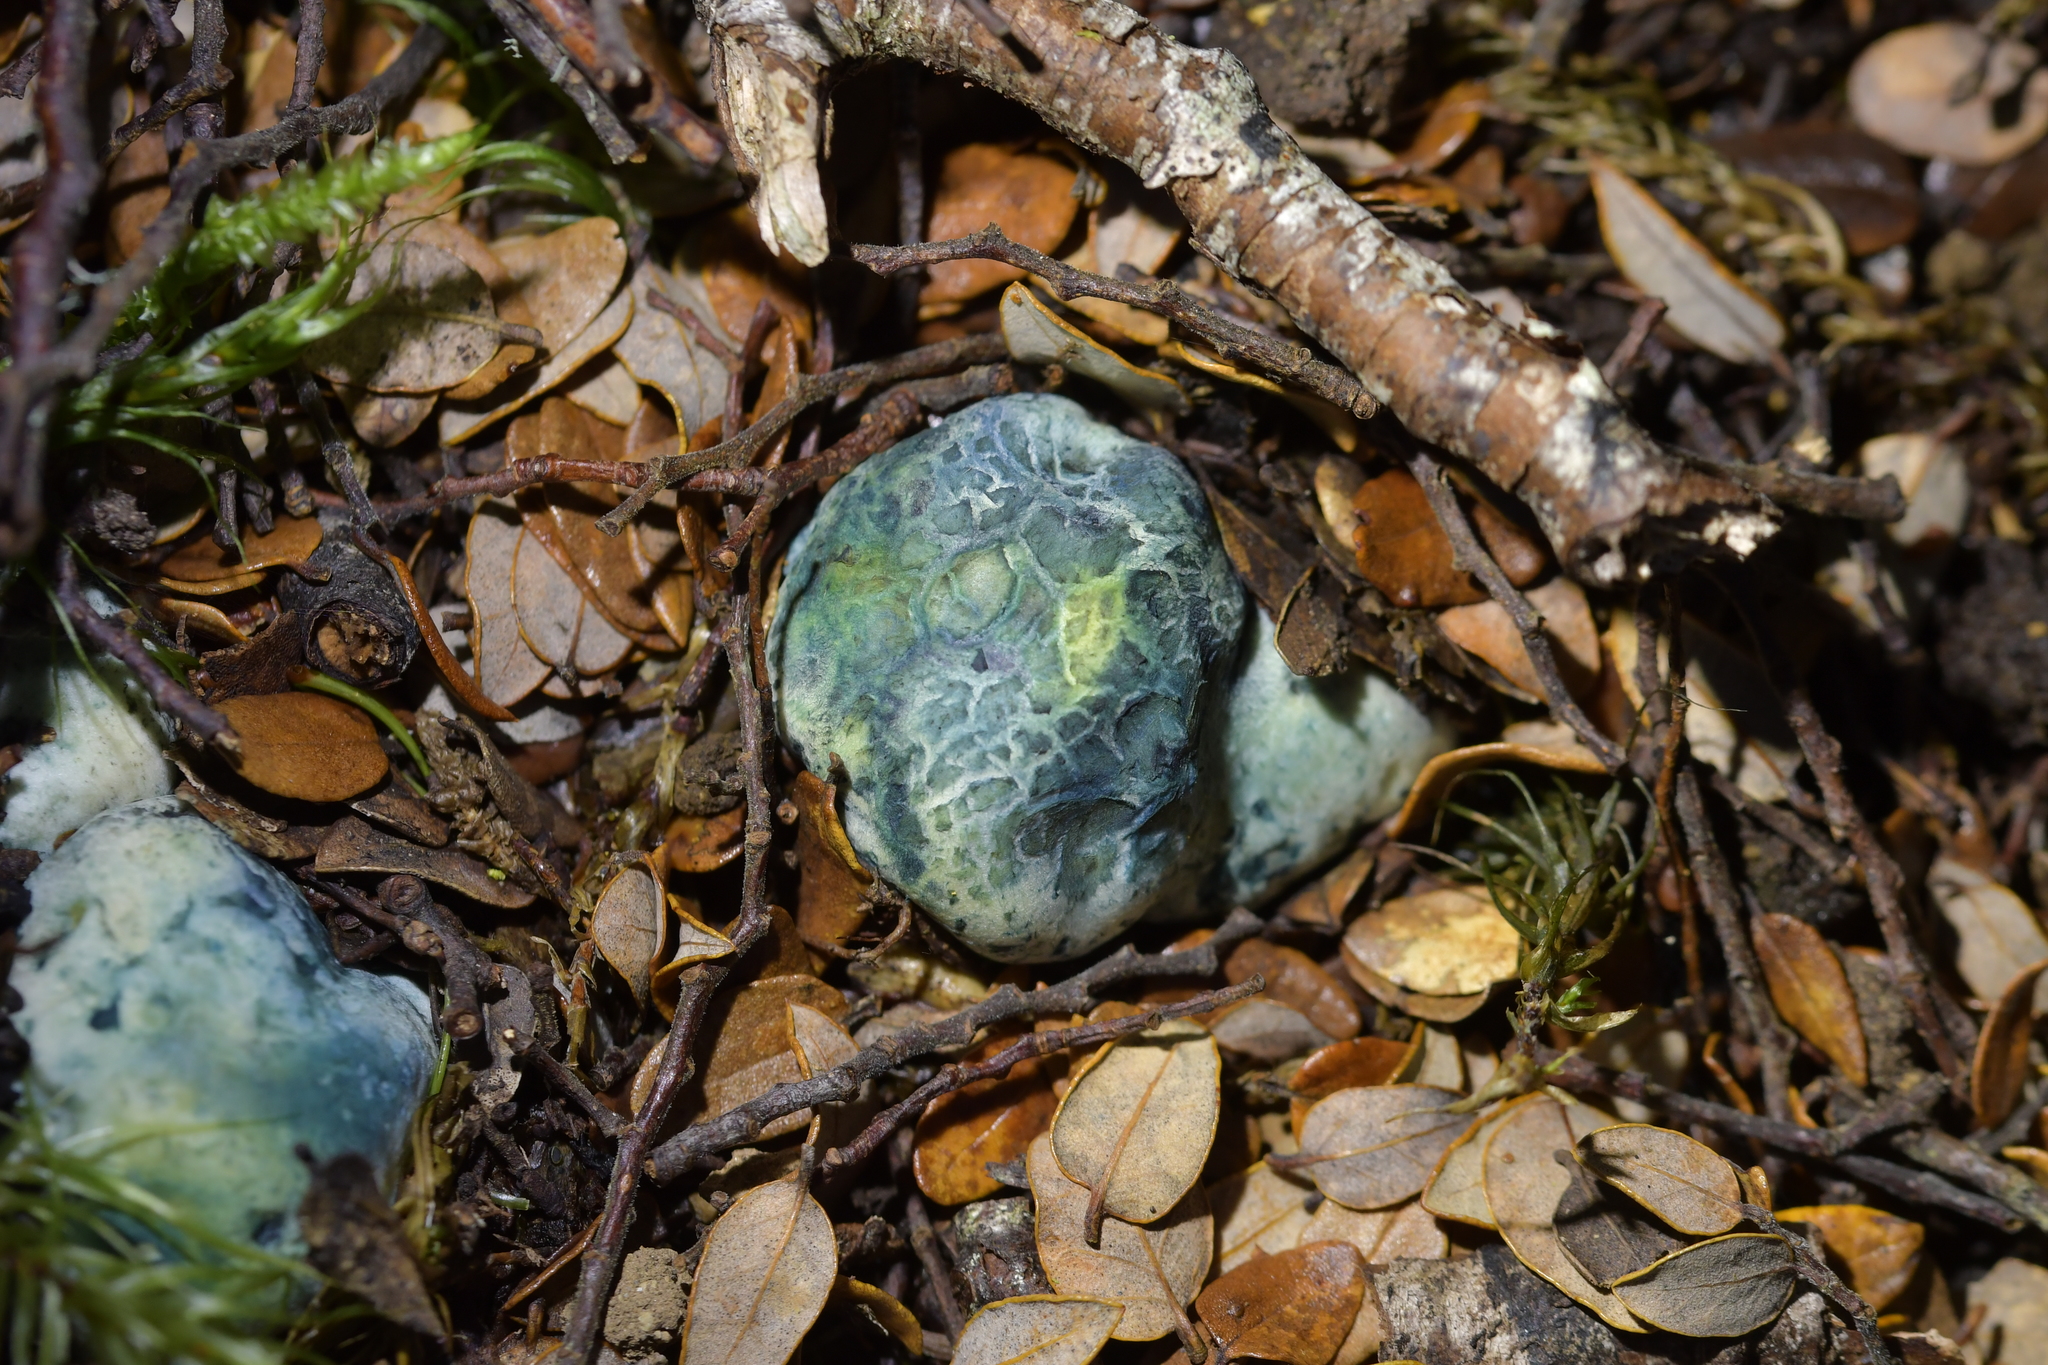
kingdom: Fungi
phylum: Basidiomycota
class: Agaricomycetes
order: Boletales
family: Boletaceae
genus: Leccinum
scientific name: Leccinum pachyderme
